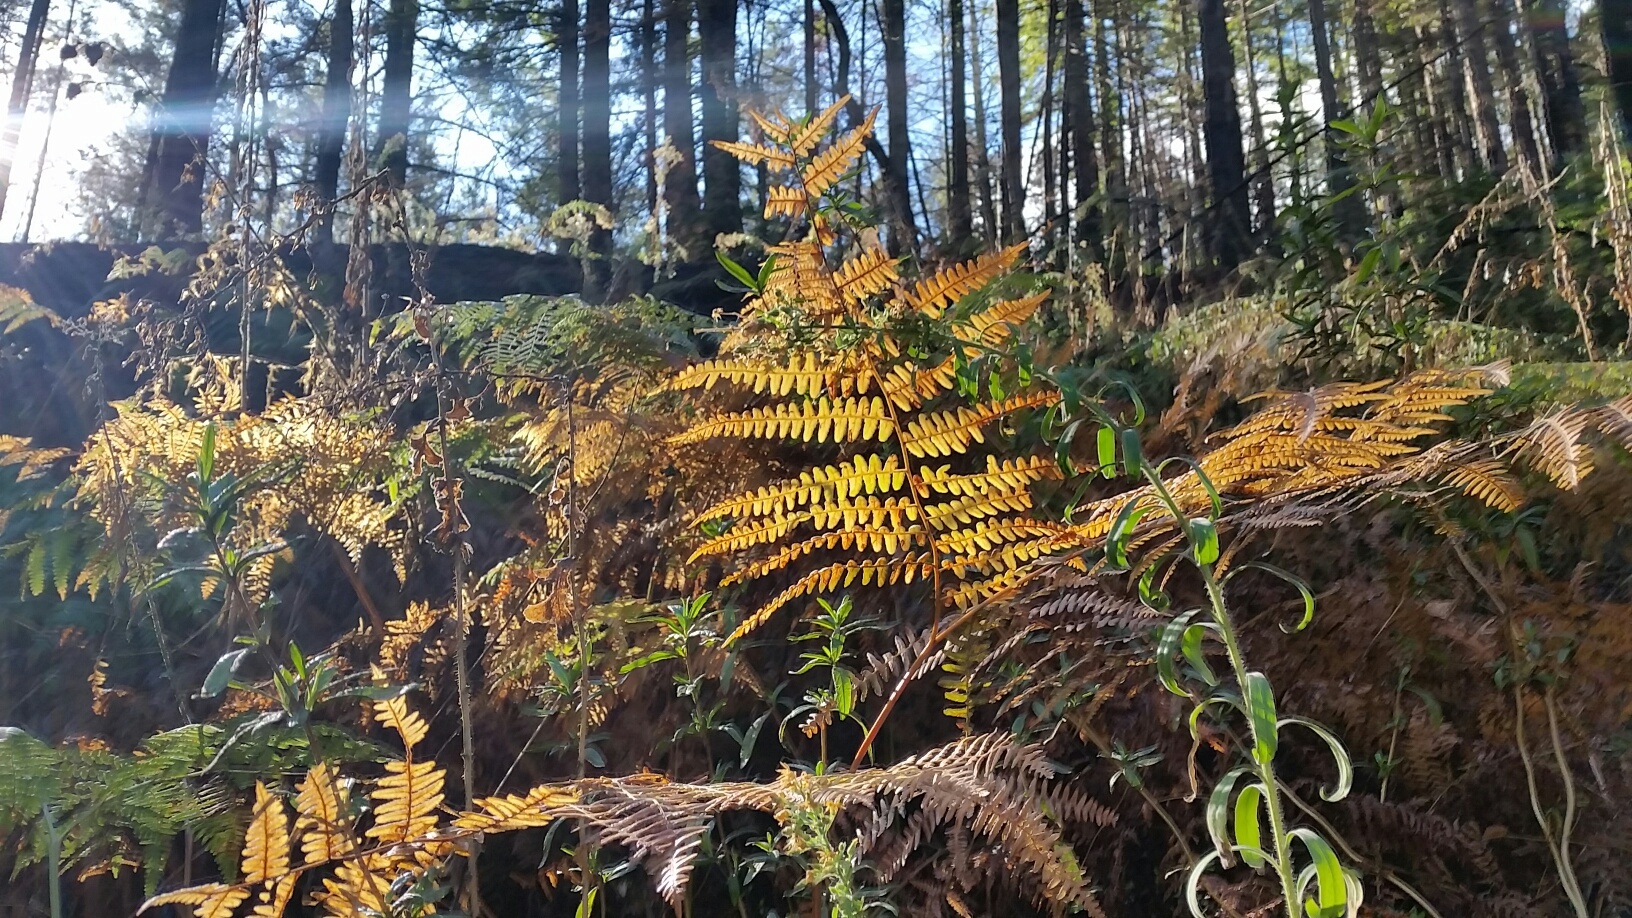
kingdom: Plantae
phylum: Tracheophyta
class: Polypodiopsida
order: Polypodiales
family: Dennstaedtiaceae
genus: Pteridium
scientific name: Pteridium aquilinum
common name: Bracken
